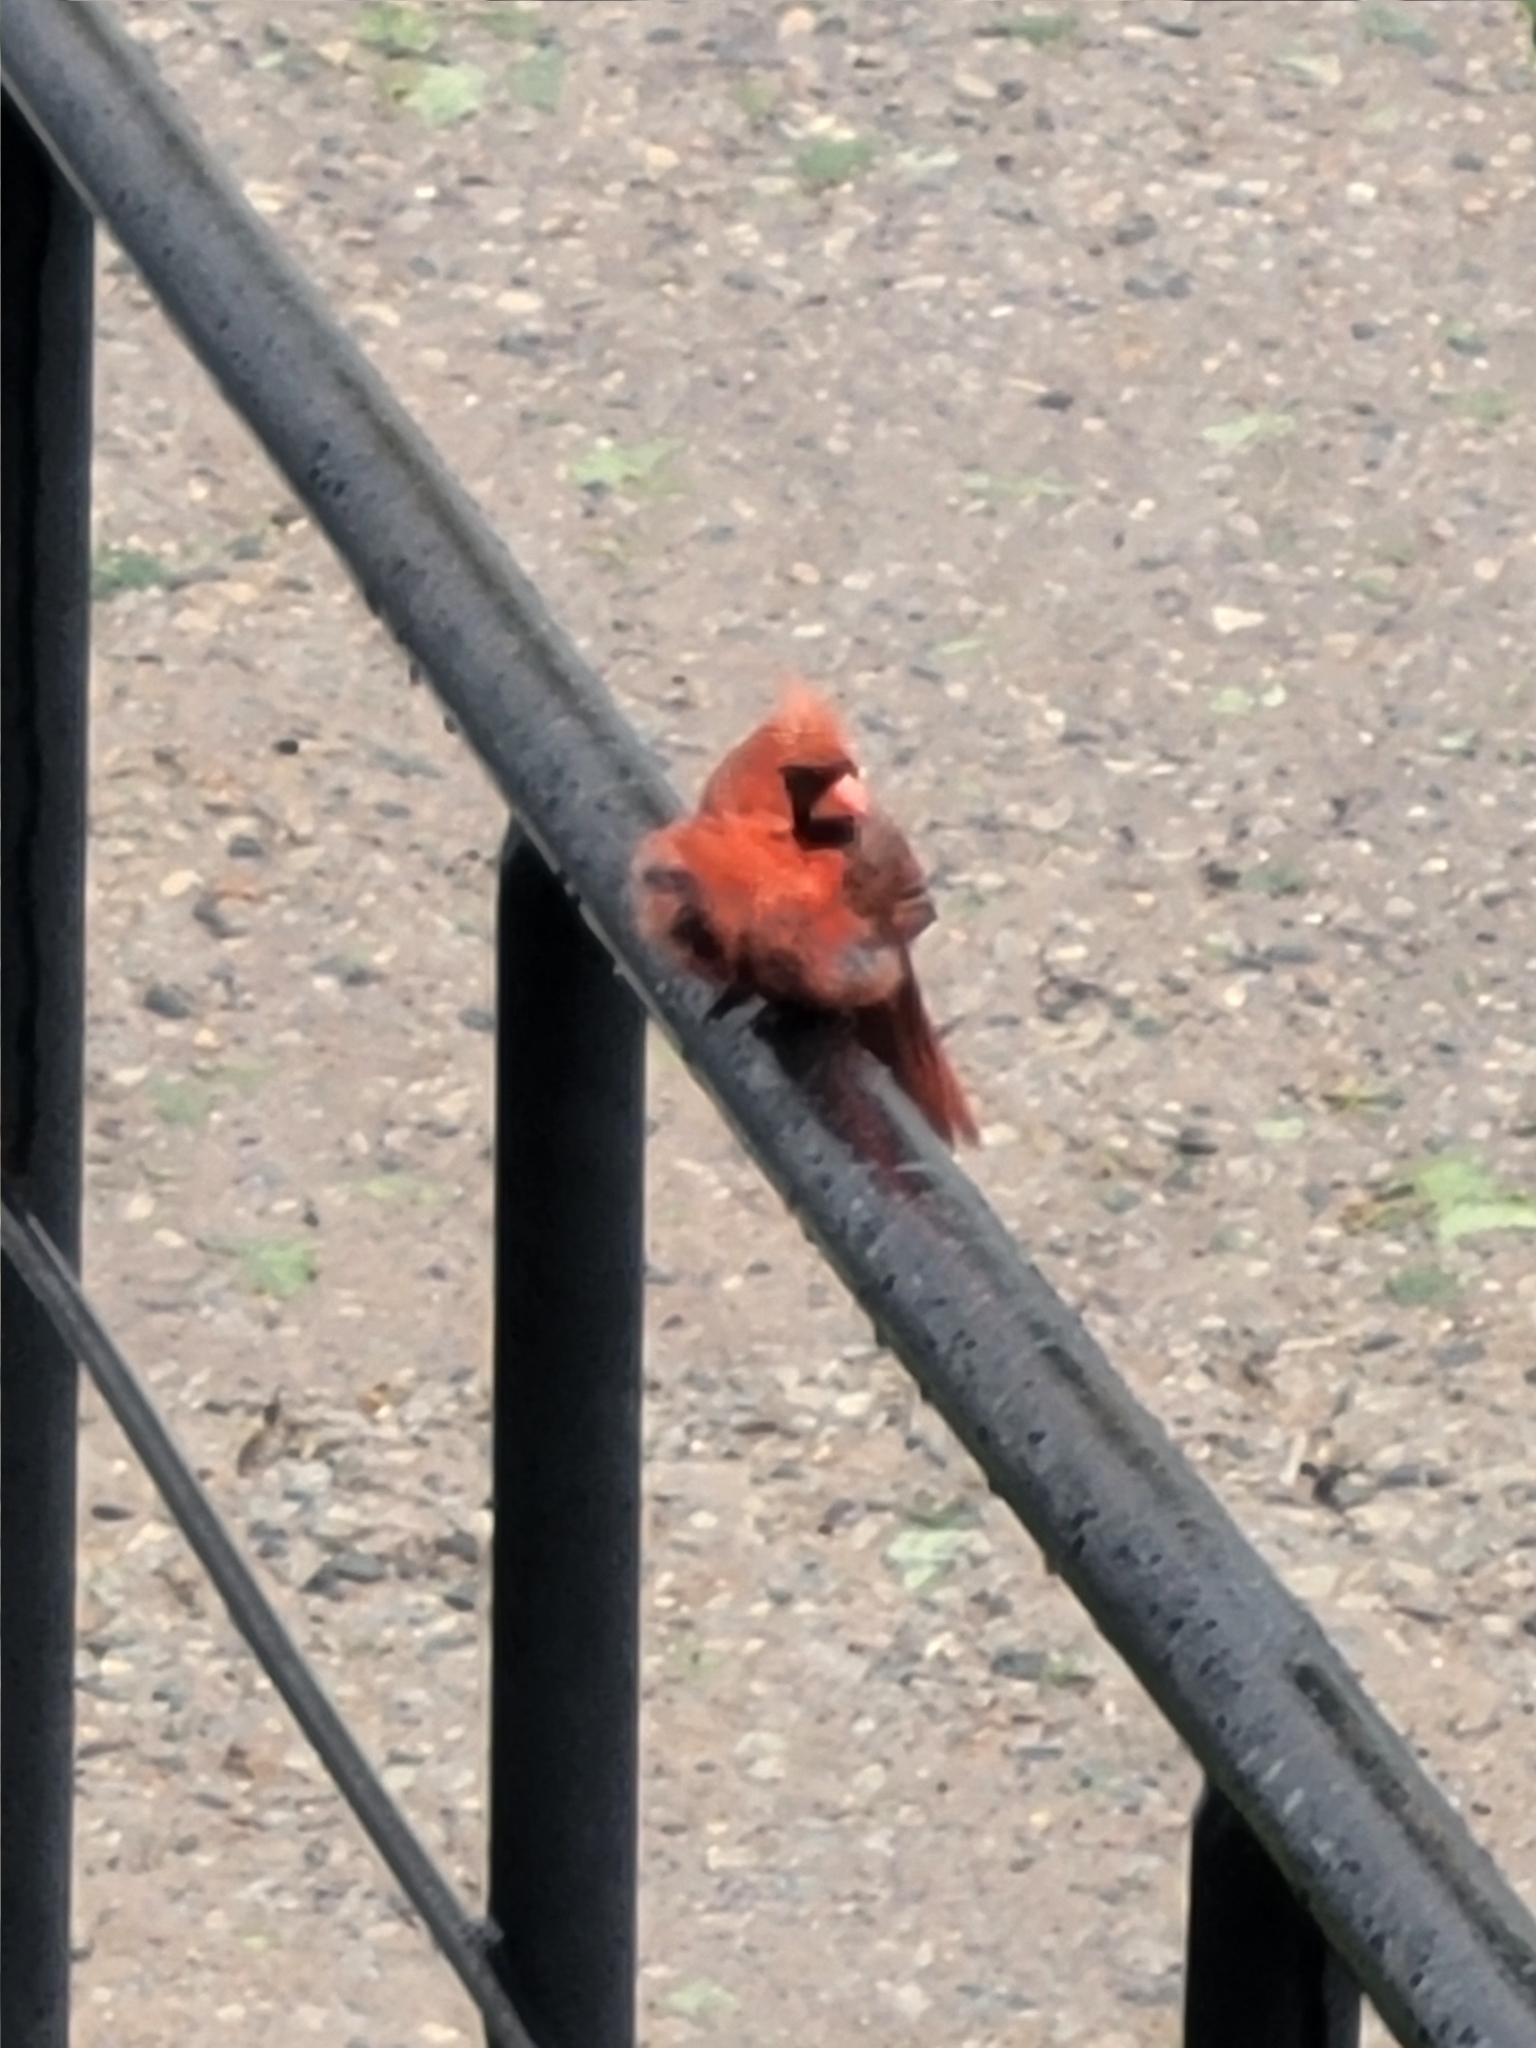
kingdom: Animalia
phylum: Chordata
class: Aves
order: Passeriformes
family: Cardinalidae
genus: Cardinalis
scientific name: Cardinalis cardinalis
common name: Northern cardinal
